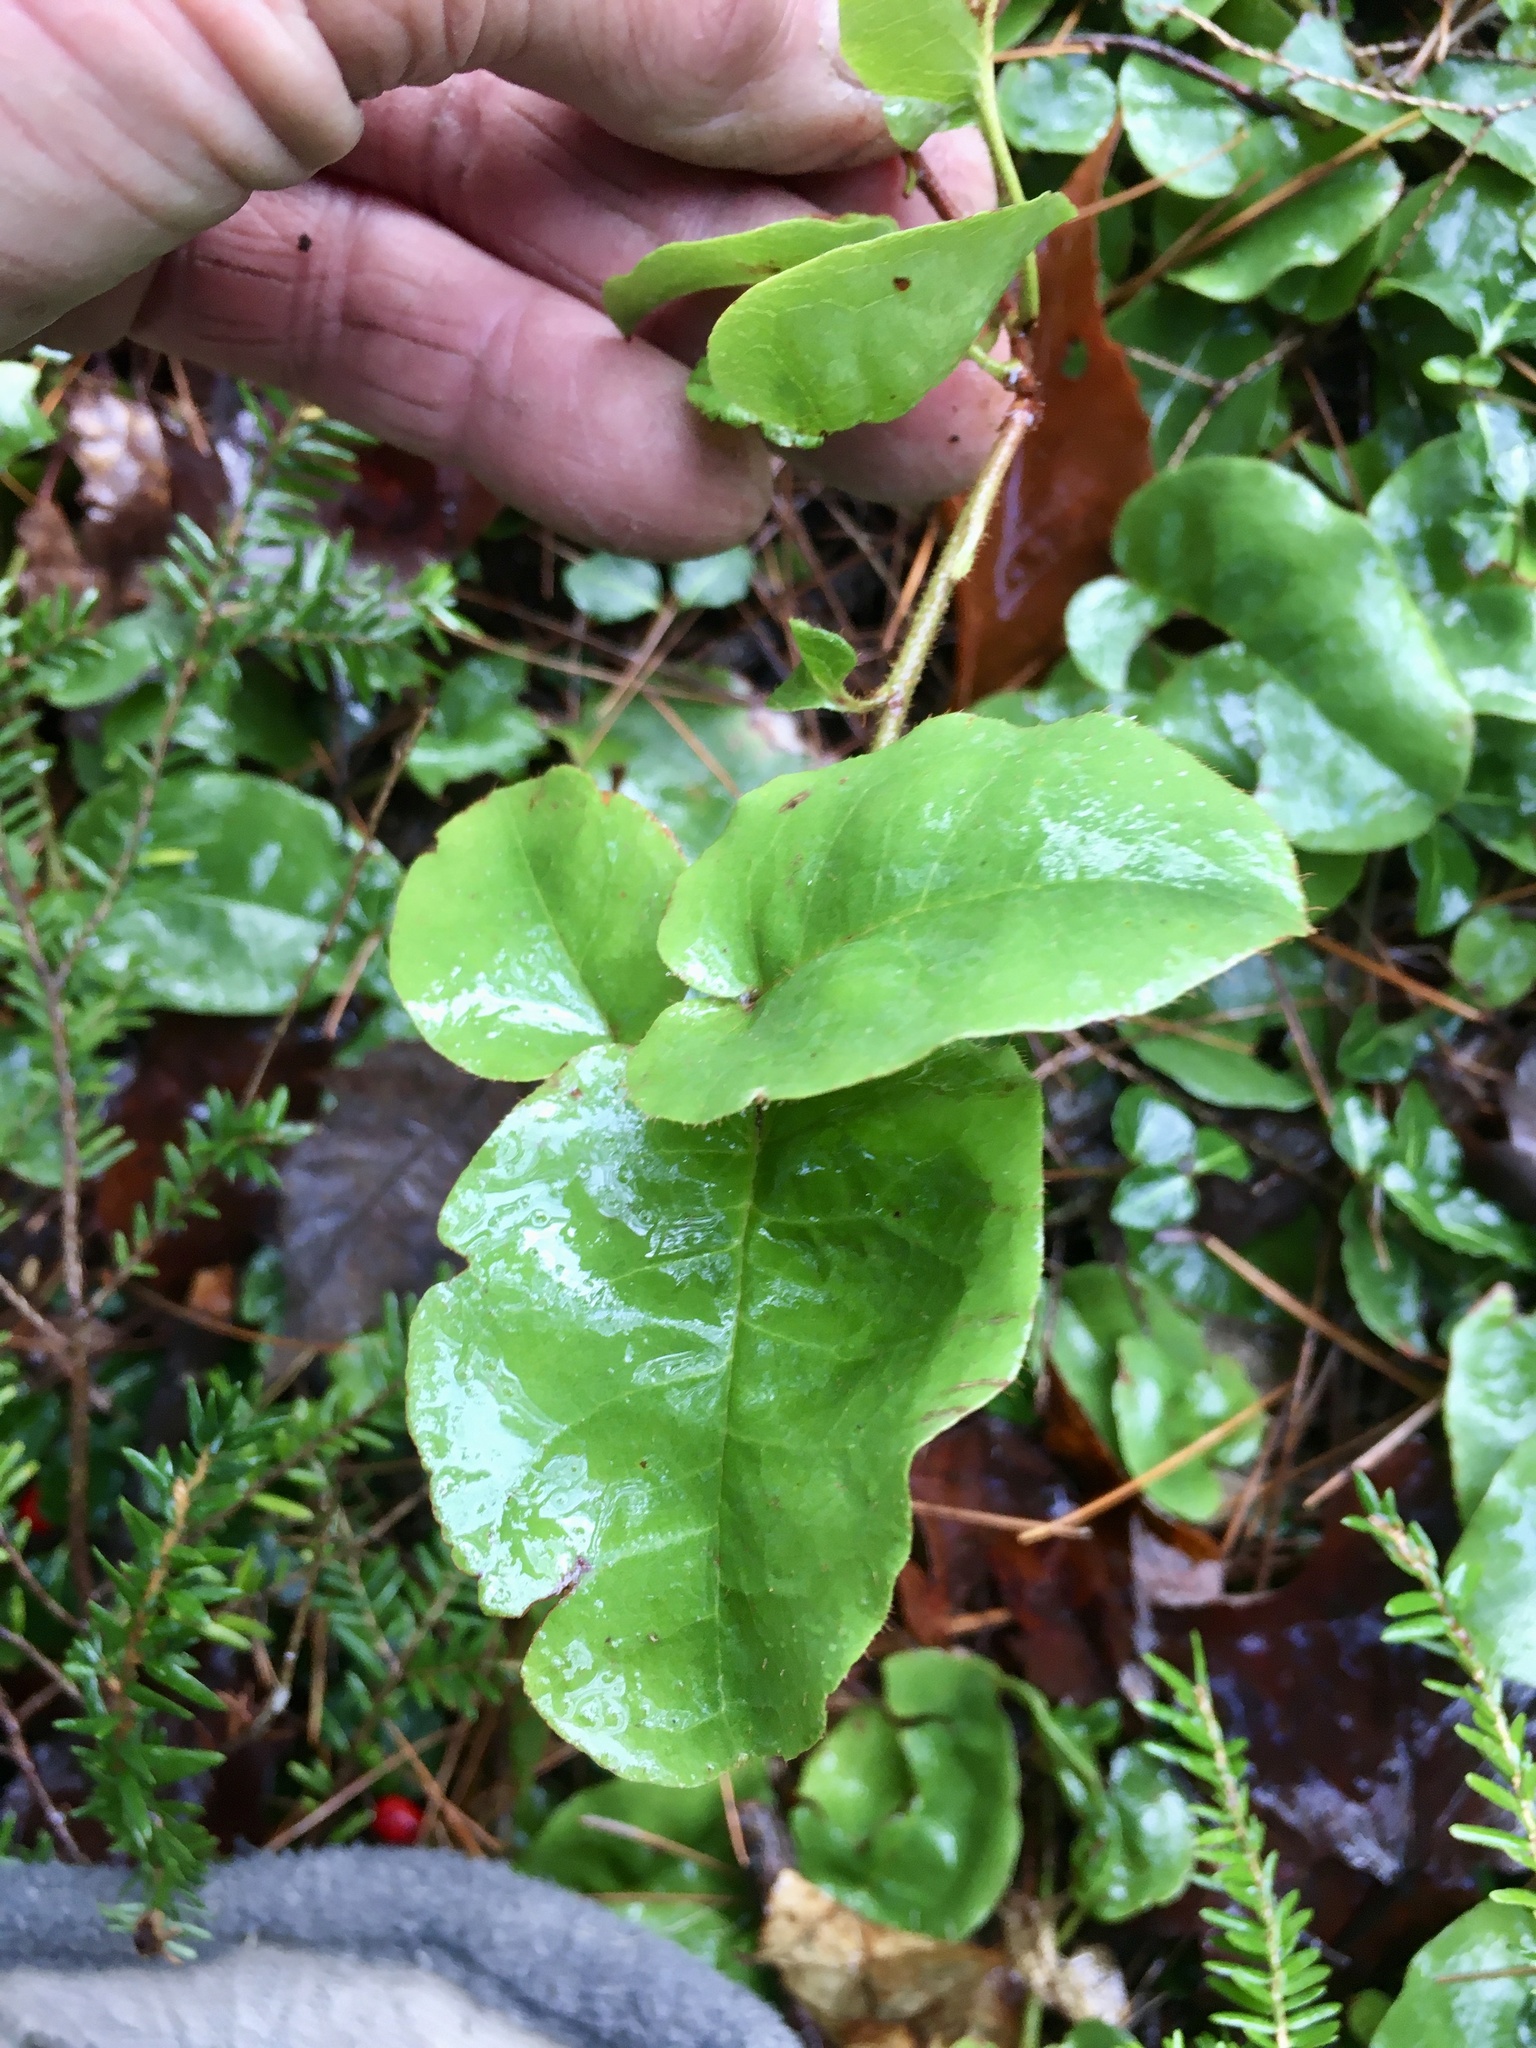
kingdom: Plantae
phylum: Tracheophyta
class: Magnoliopsida
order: Ericales
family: Ericaceae
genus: Epigaea
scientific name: Epigaea repens
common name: Gravelroot
